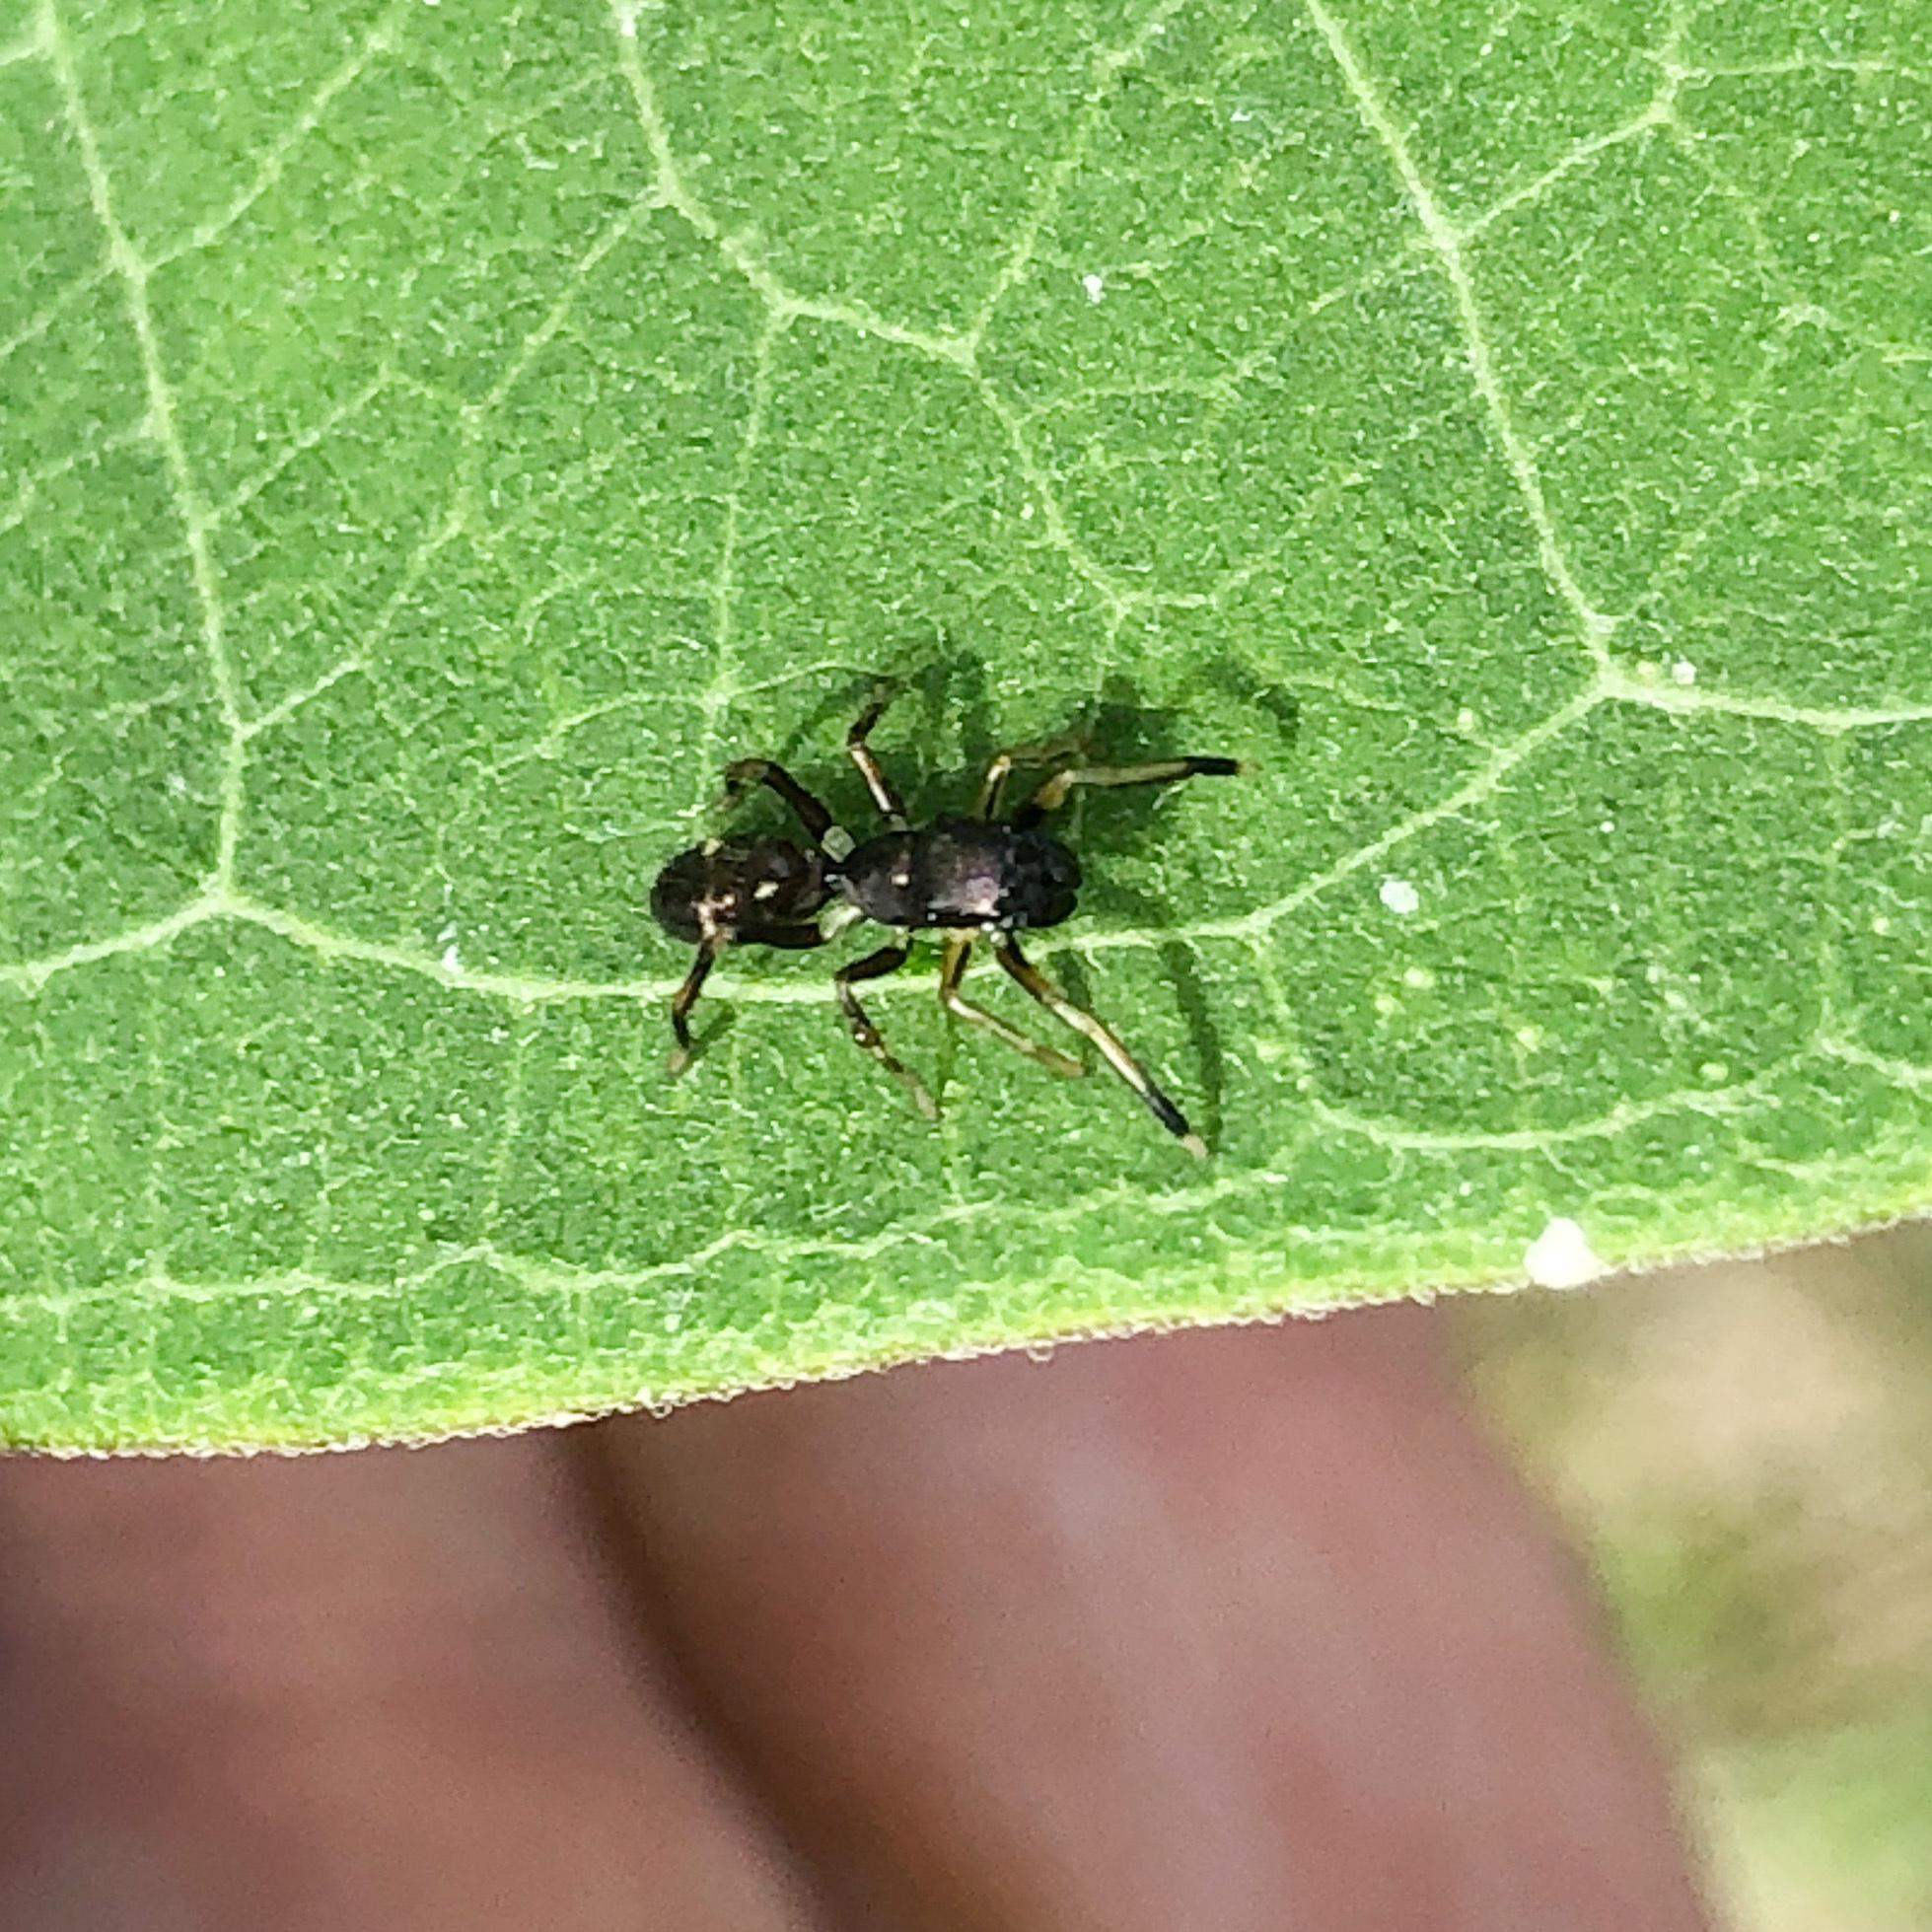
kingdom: Animalia
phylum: Arthropoda
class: Arachnida
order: Araneae
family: Salticidae
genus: Myrmarachne
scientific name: Myrmarachne formicaria
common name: Ant mimic jumping spider
